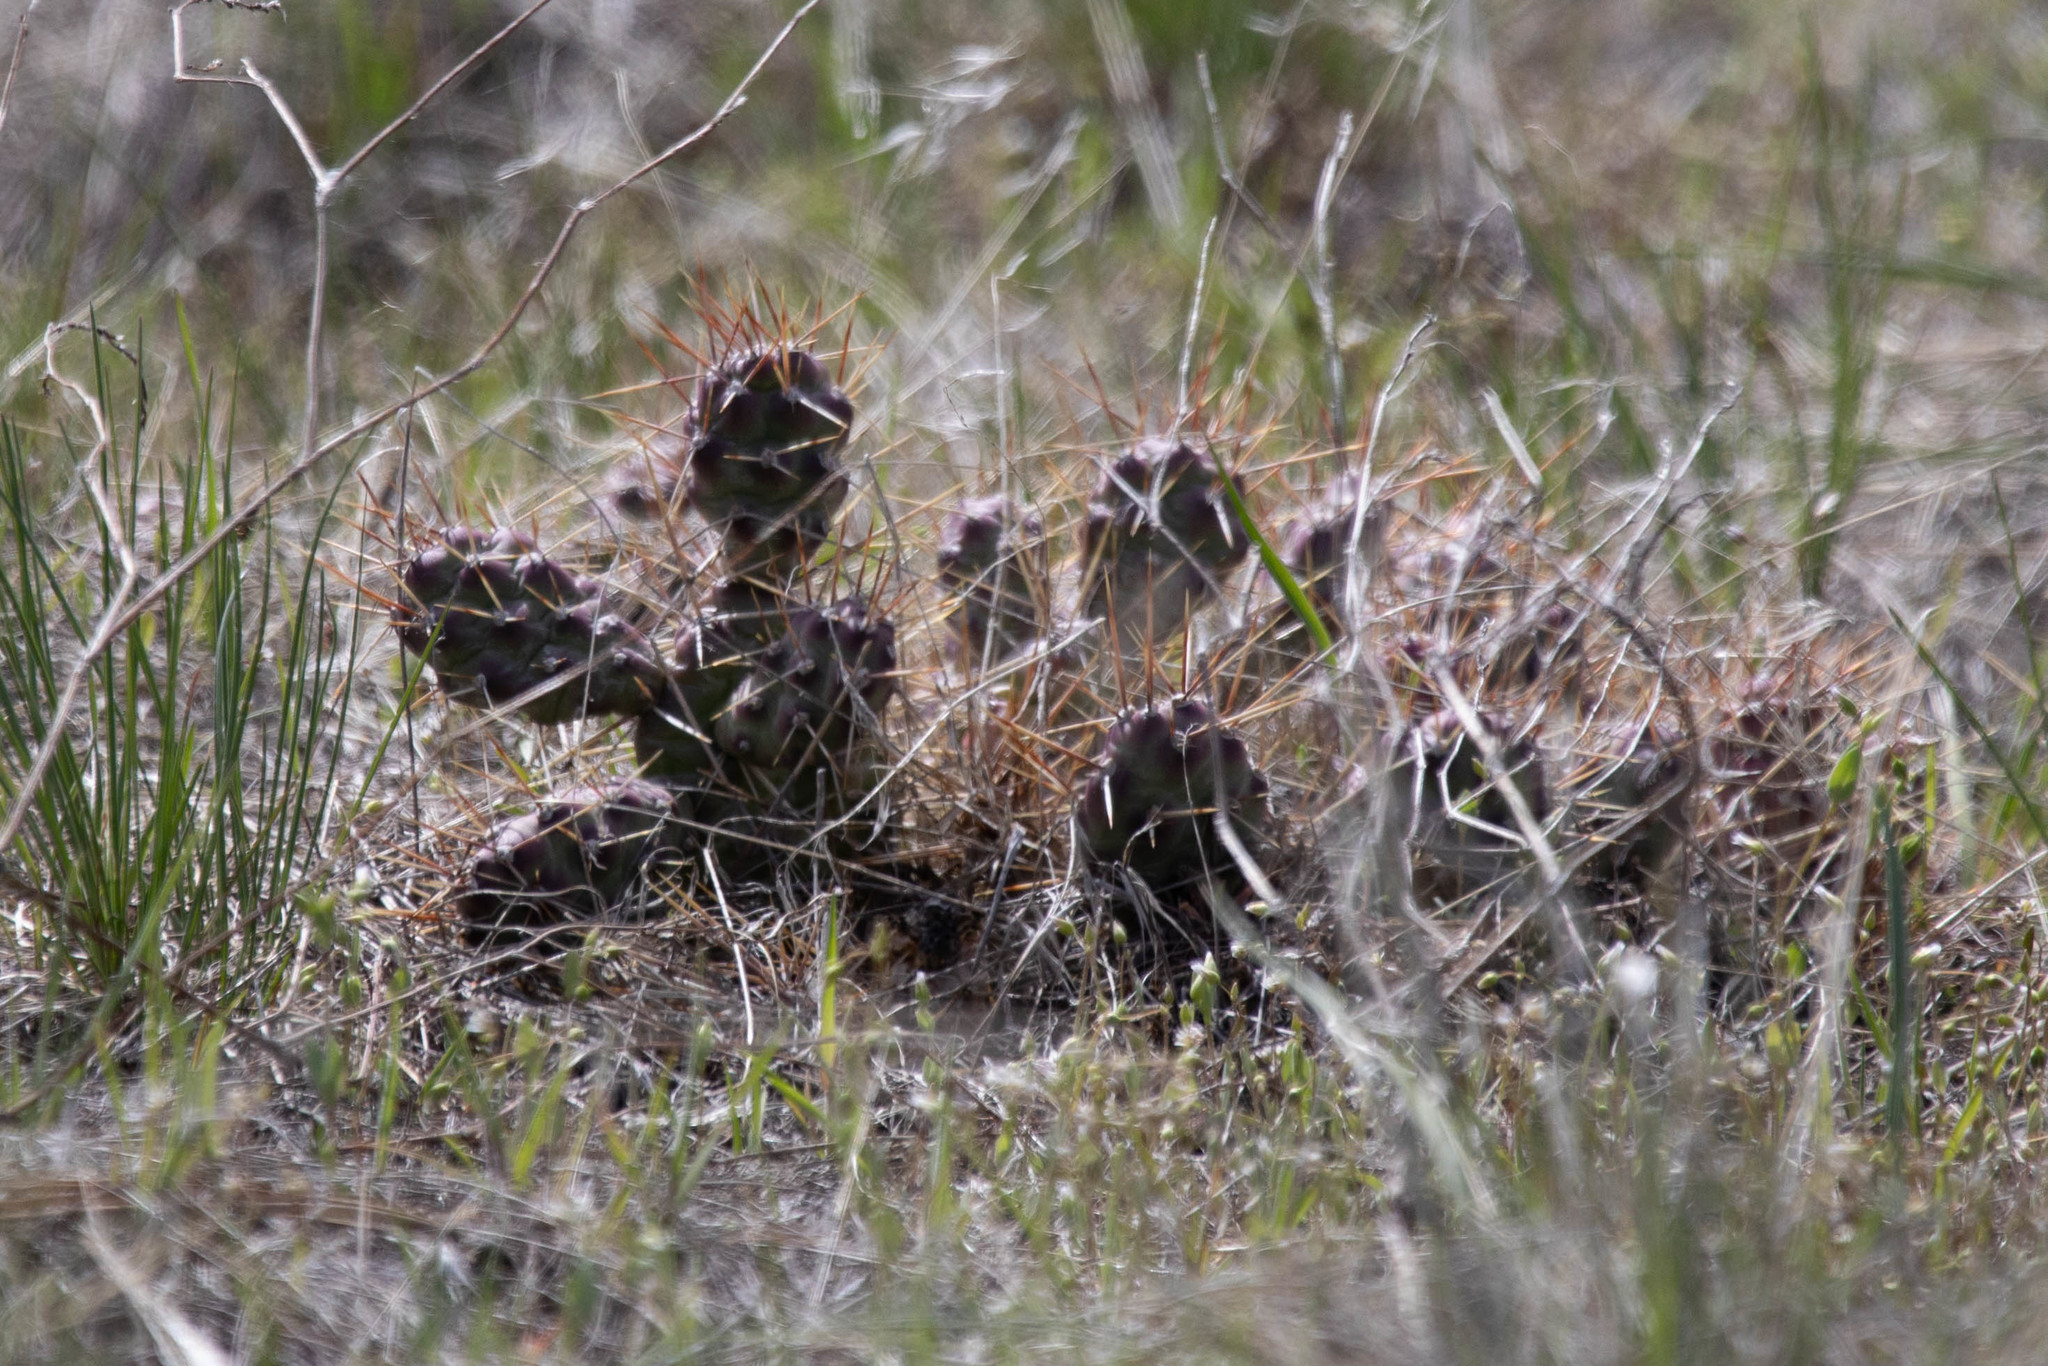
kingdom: Plantae
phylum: Tracheophyta
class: Magnoliopsida
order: Caryophyllales
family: Cactaceae
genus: Opuntia
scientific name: Opuntia fragilis
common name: Brittle cactus
